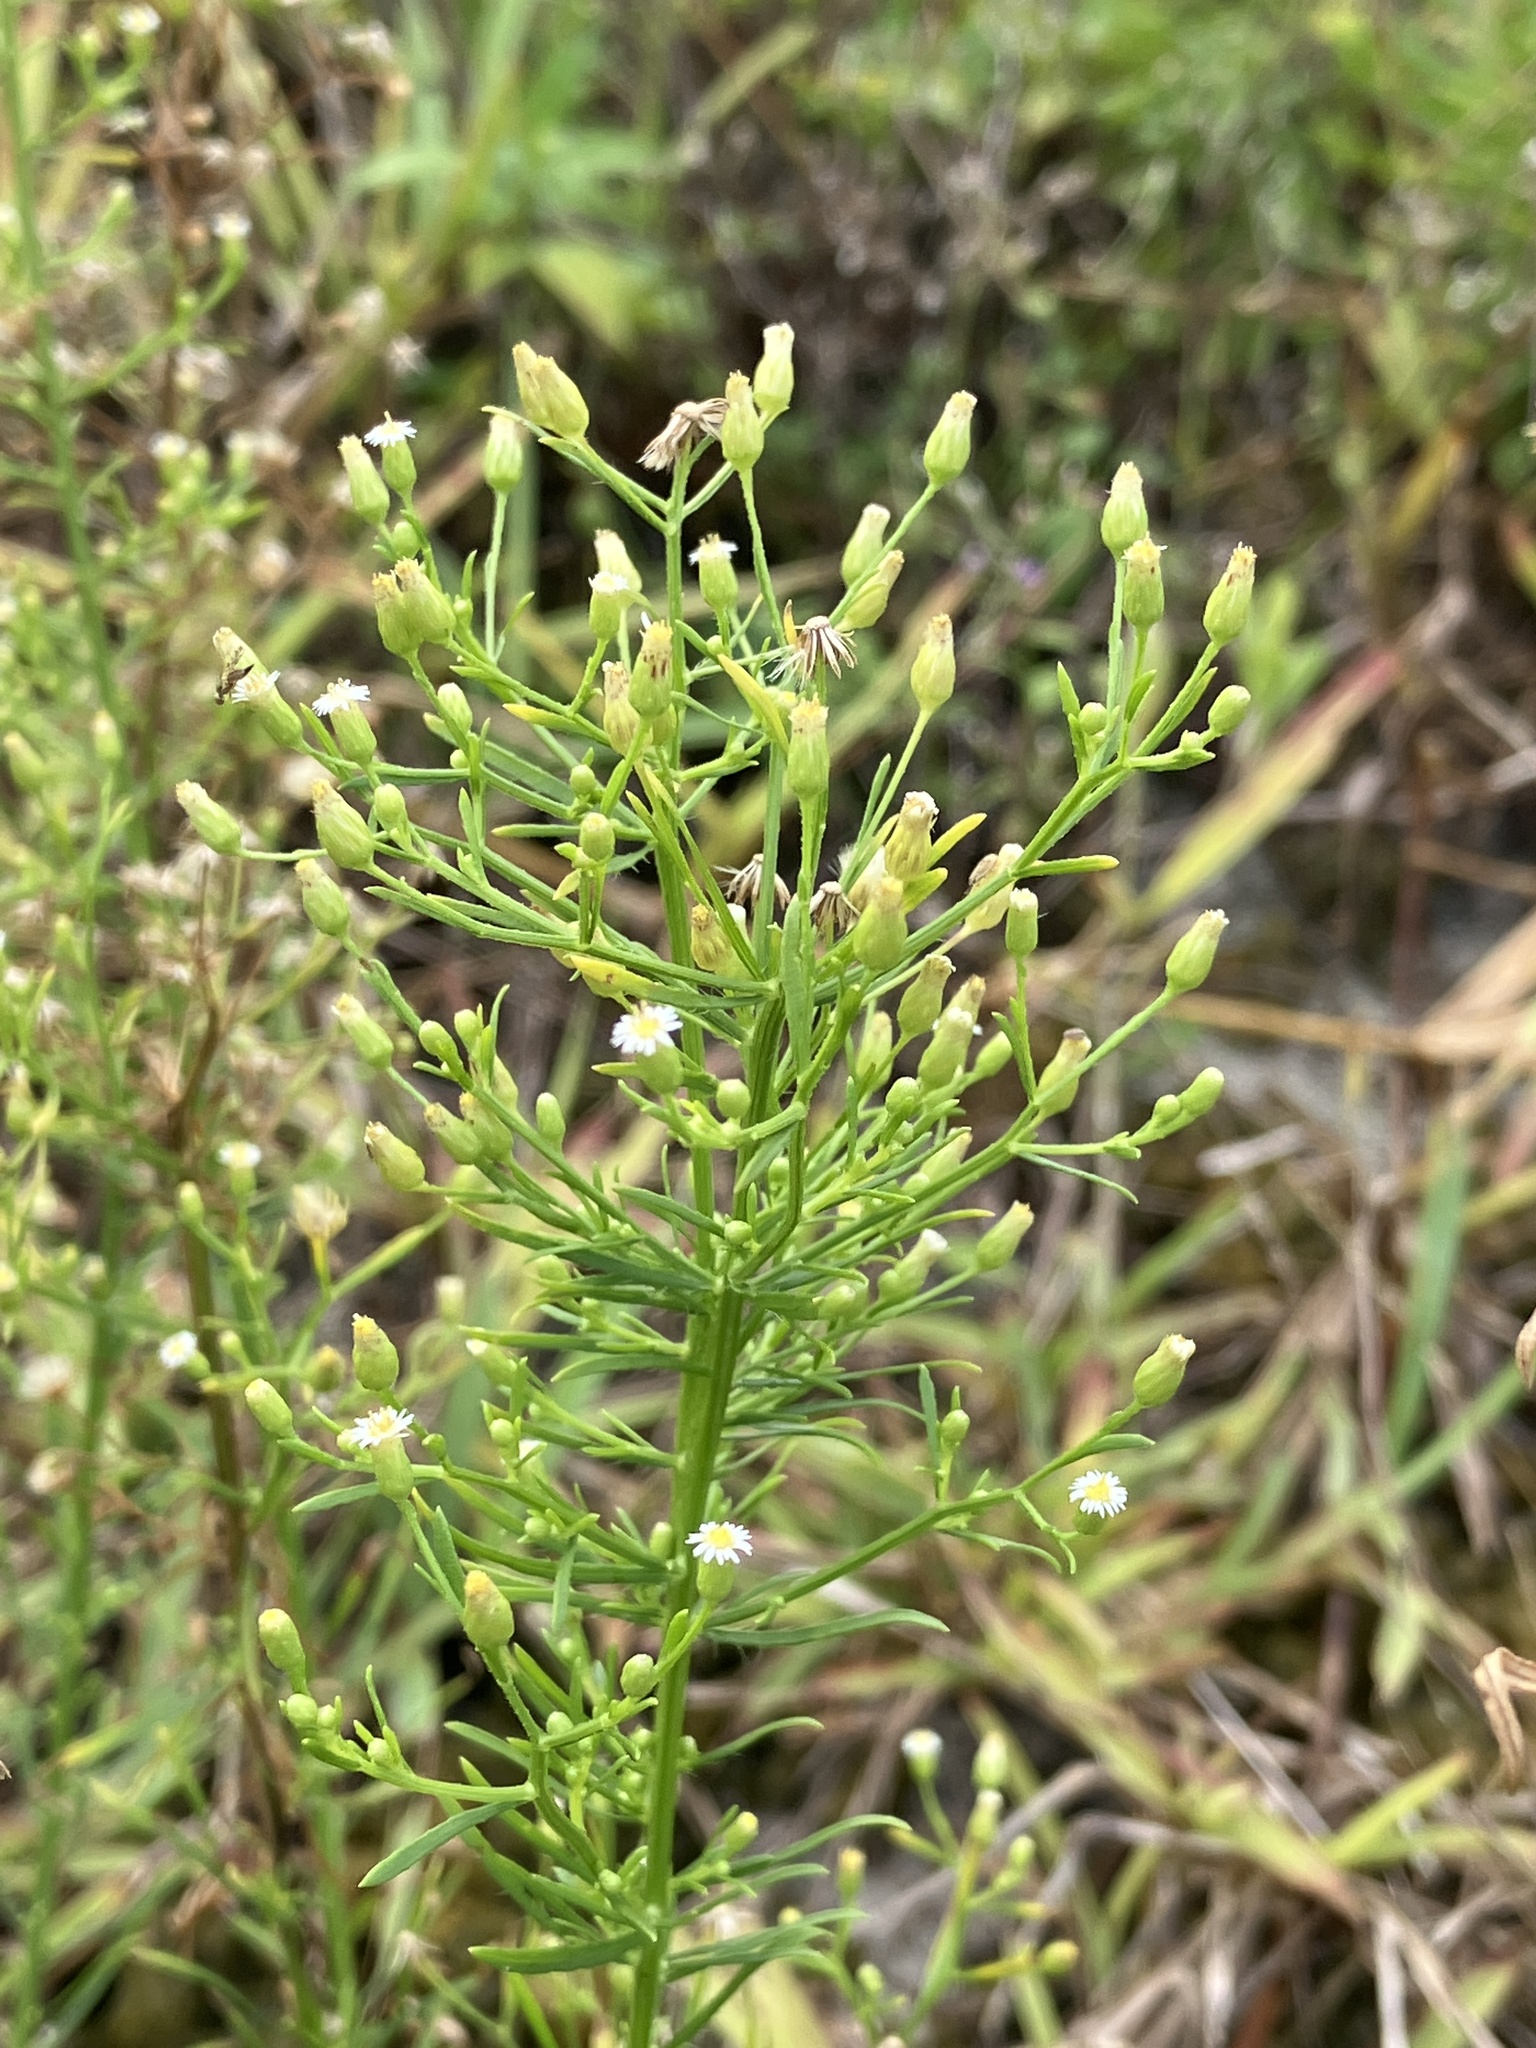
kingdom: Plantae
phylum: Tracheophyta
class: Magnoliopsida
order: Asterales
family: Asteraceae
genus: Erigeron
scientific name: Erigeron canadensis
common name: Canadian fleabane
